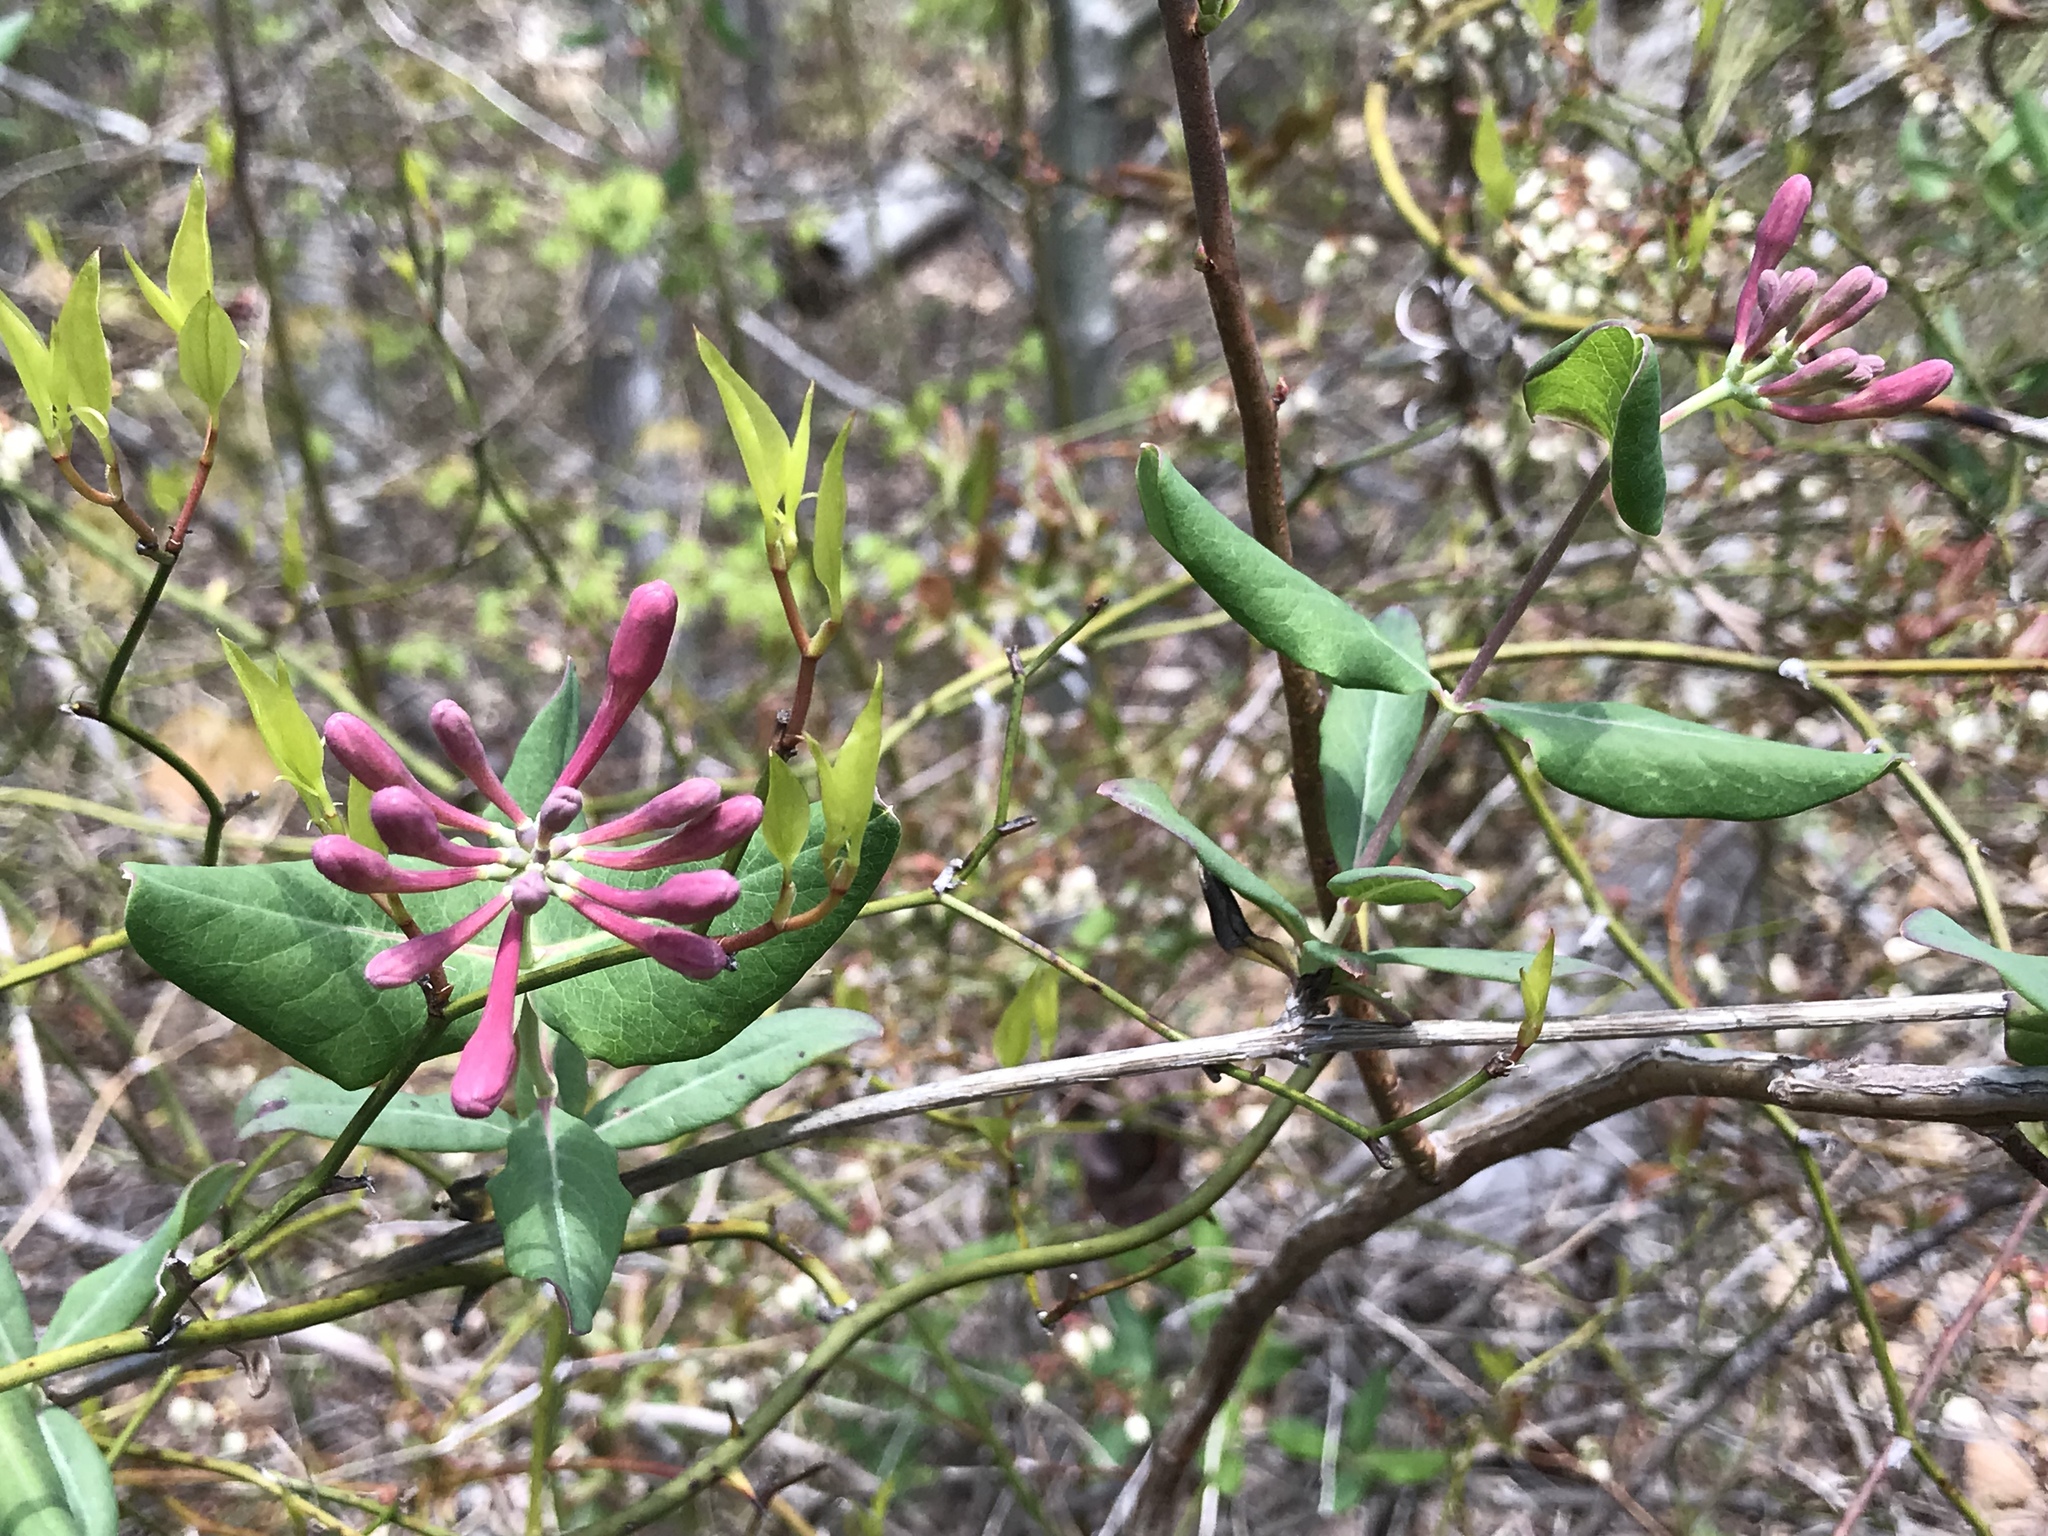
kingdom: Plantae
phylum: Tracheophyta
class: Magnoliopsida
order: Dipsacales
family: Caprifoliaceae
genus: Lonicera
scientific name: Lonicera sempervirens
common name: Coral honeysuckle
